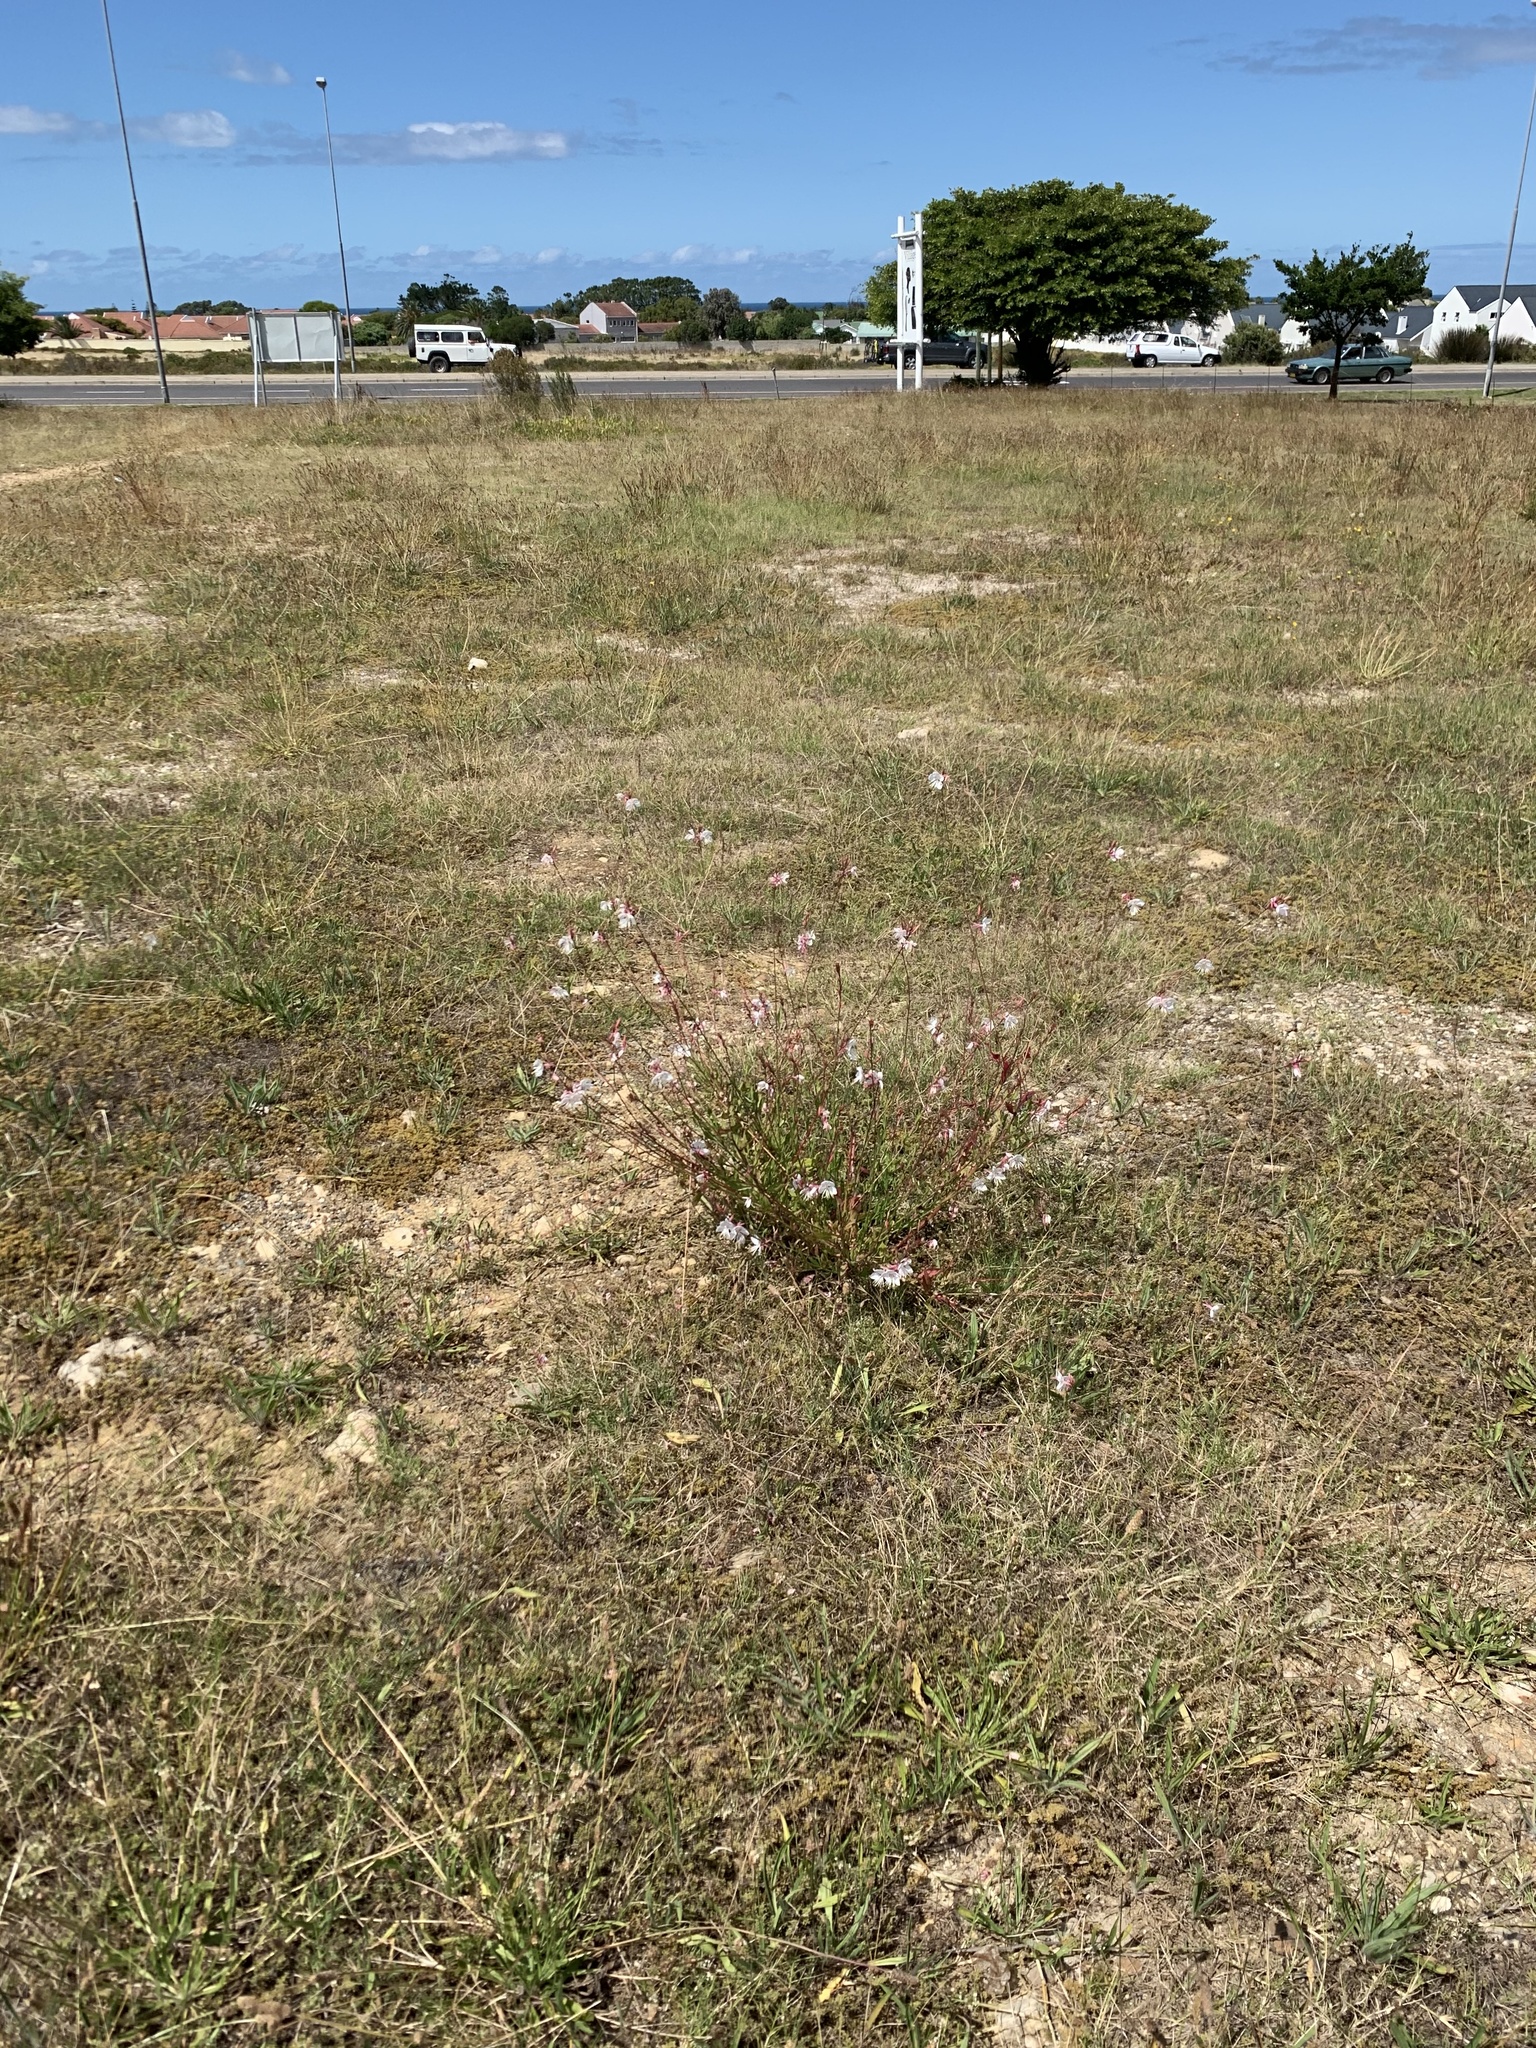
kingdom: Plantae
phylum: Tracheophyta
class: Magnoliopsida
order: Myrtales
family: Onagraceae
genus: Oenothera
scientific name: Oenothera lindheimeri
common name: Lindheimer's beeblossom
